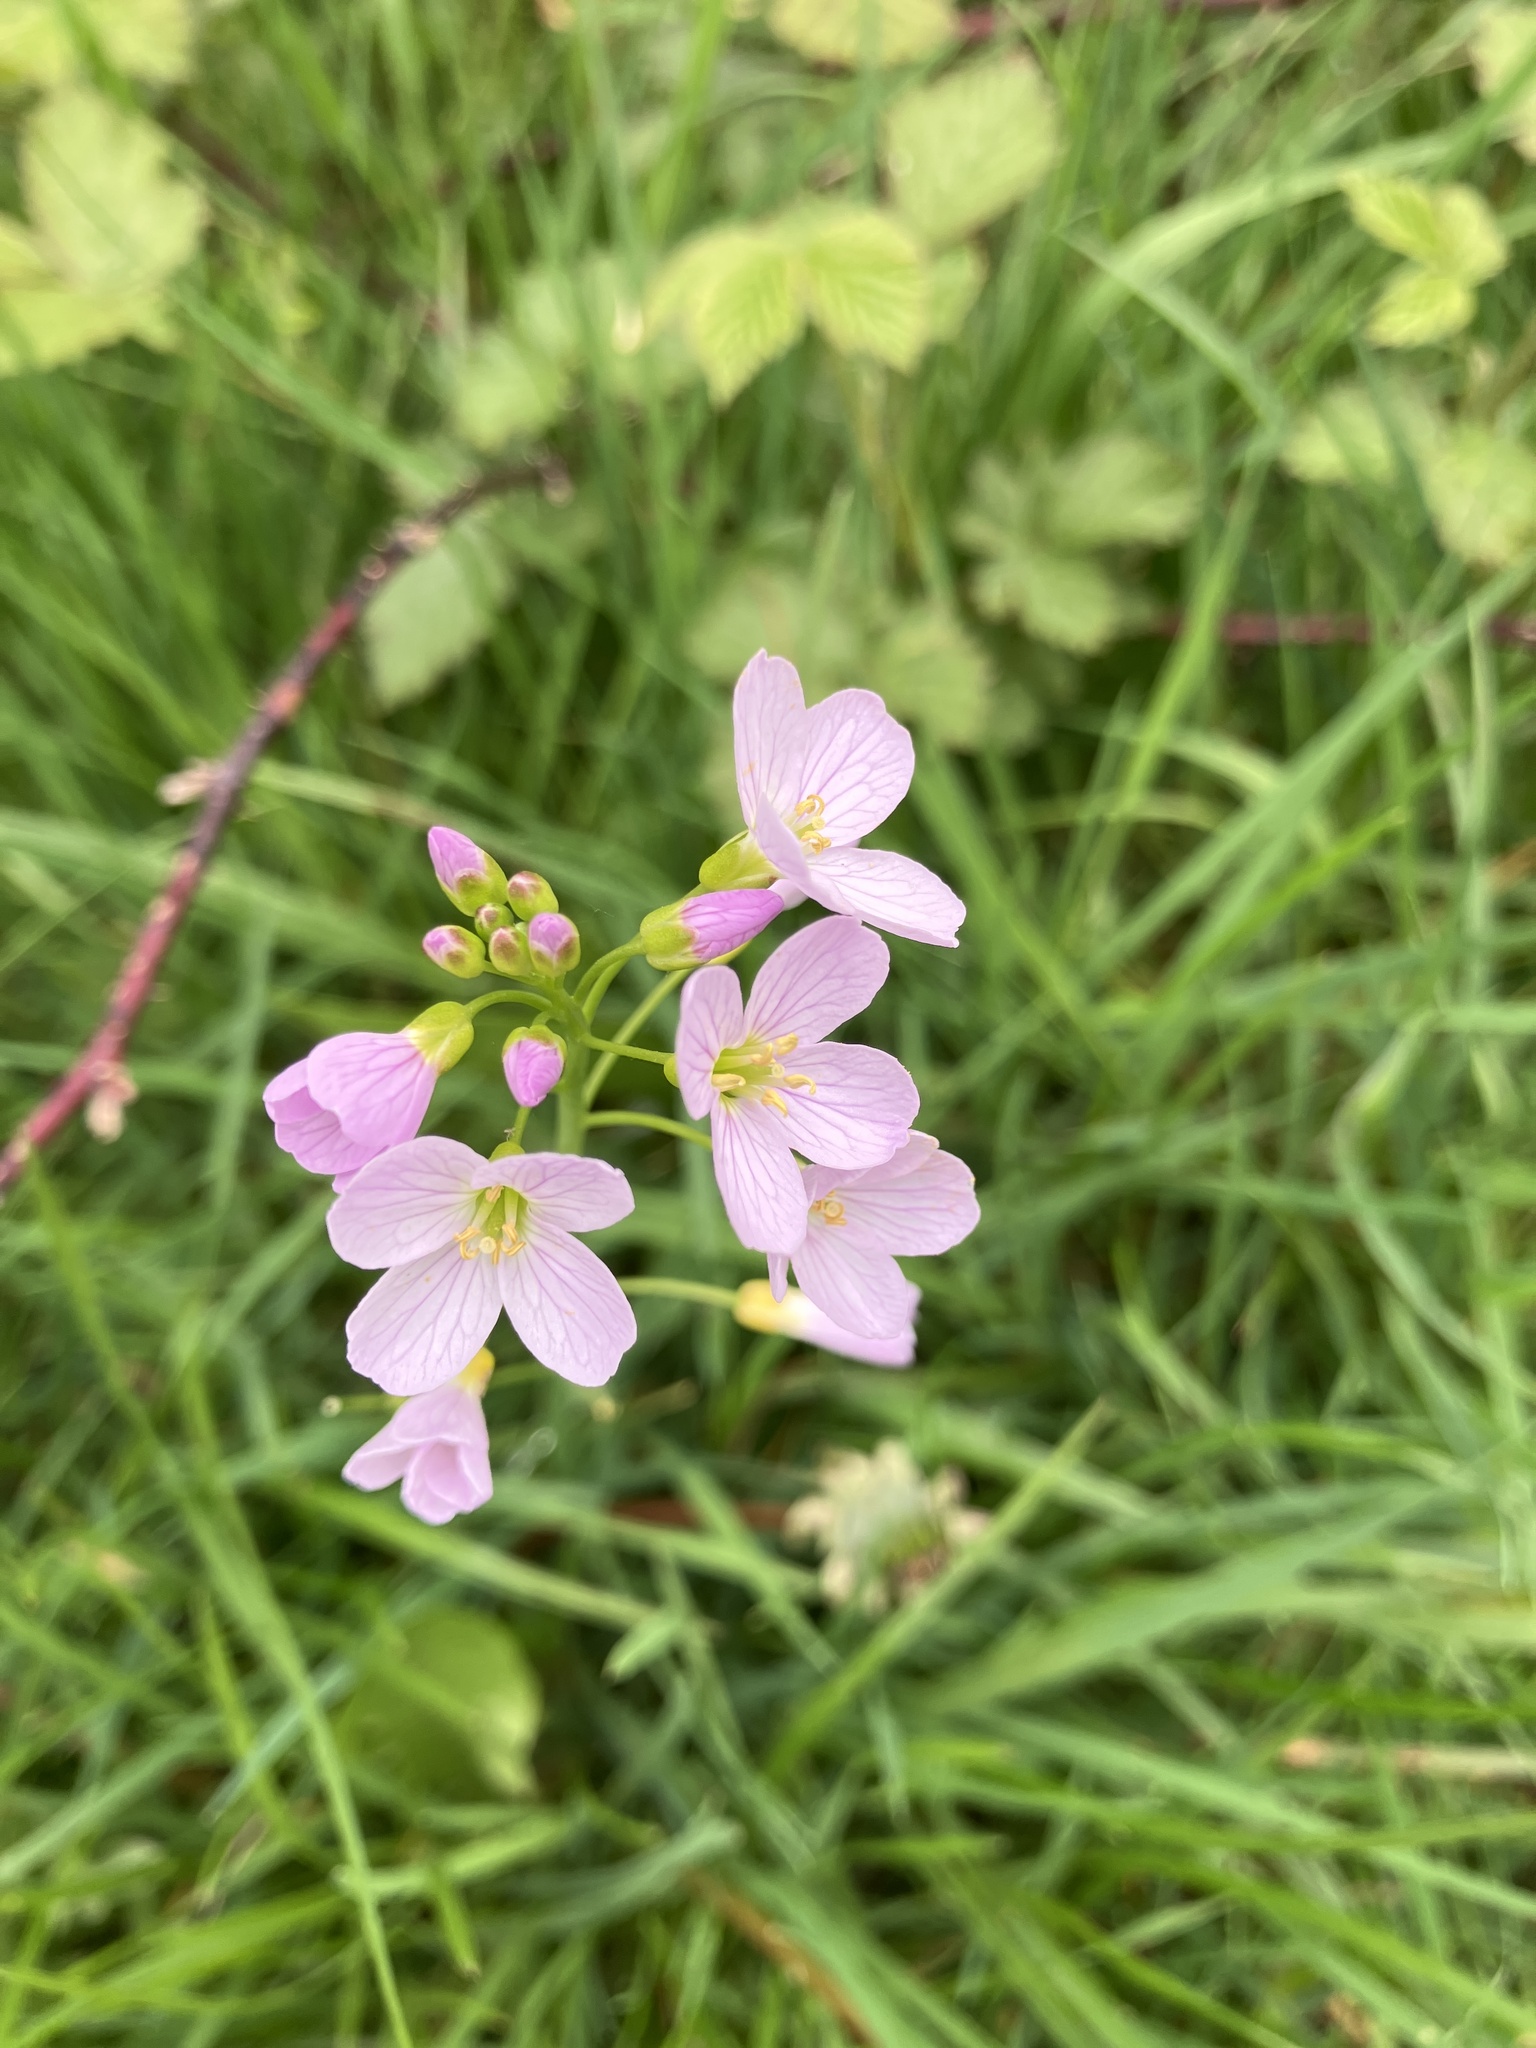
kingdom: Plantae
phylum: Tracheophyta
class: Magnoliopsida
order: Brassicales
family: Brassicaceae
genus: Cardamine
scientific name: Cardamine pratensis
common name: Cuckoo flower
